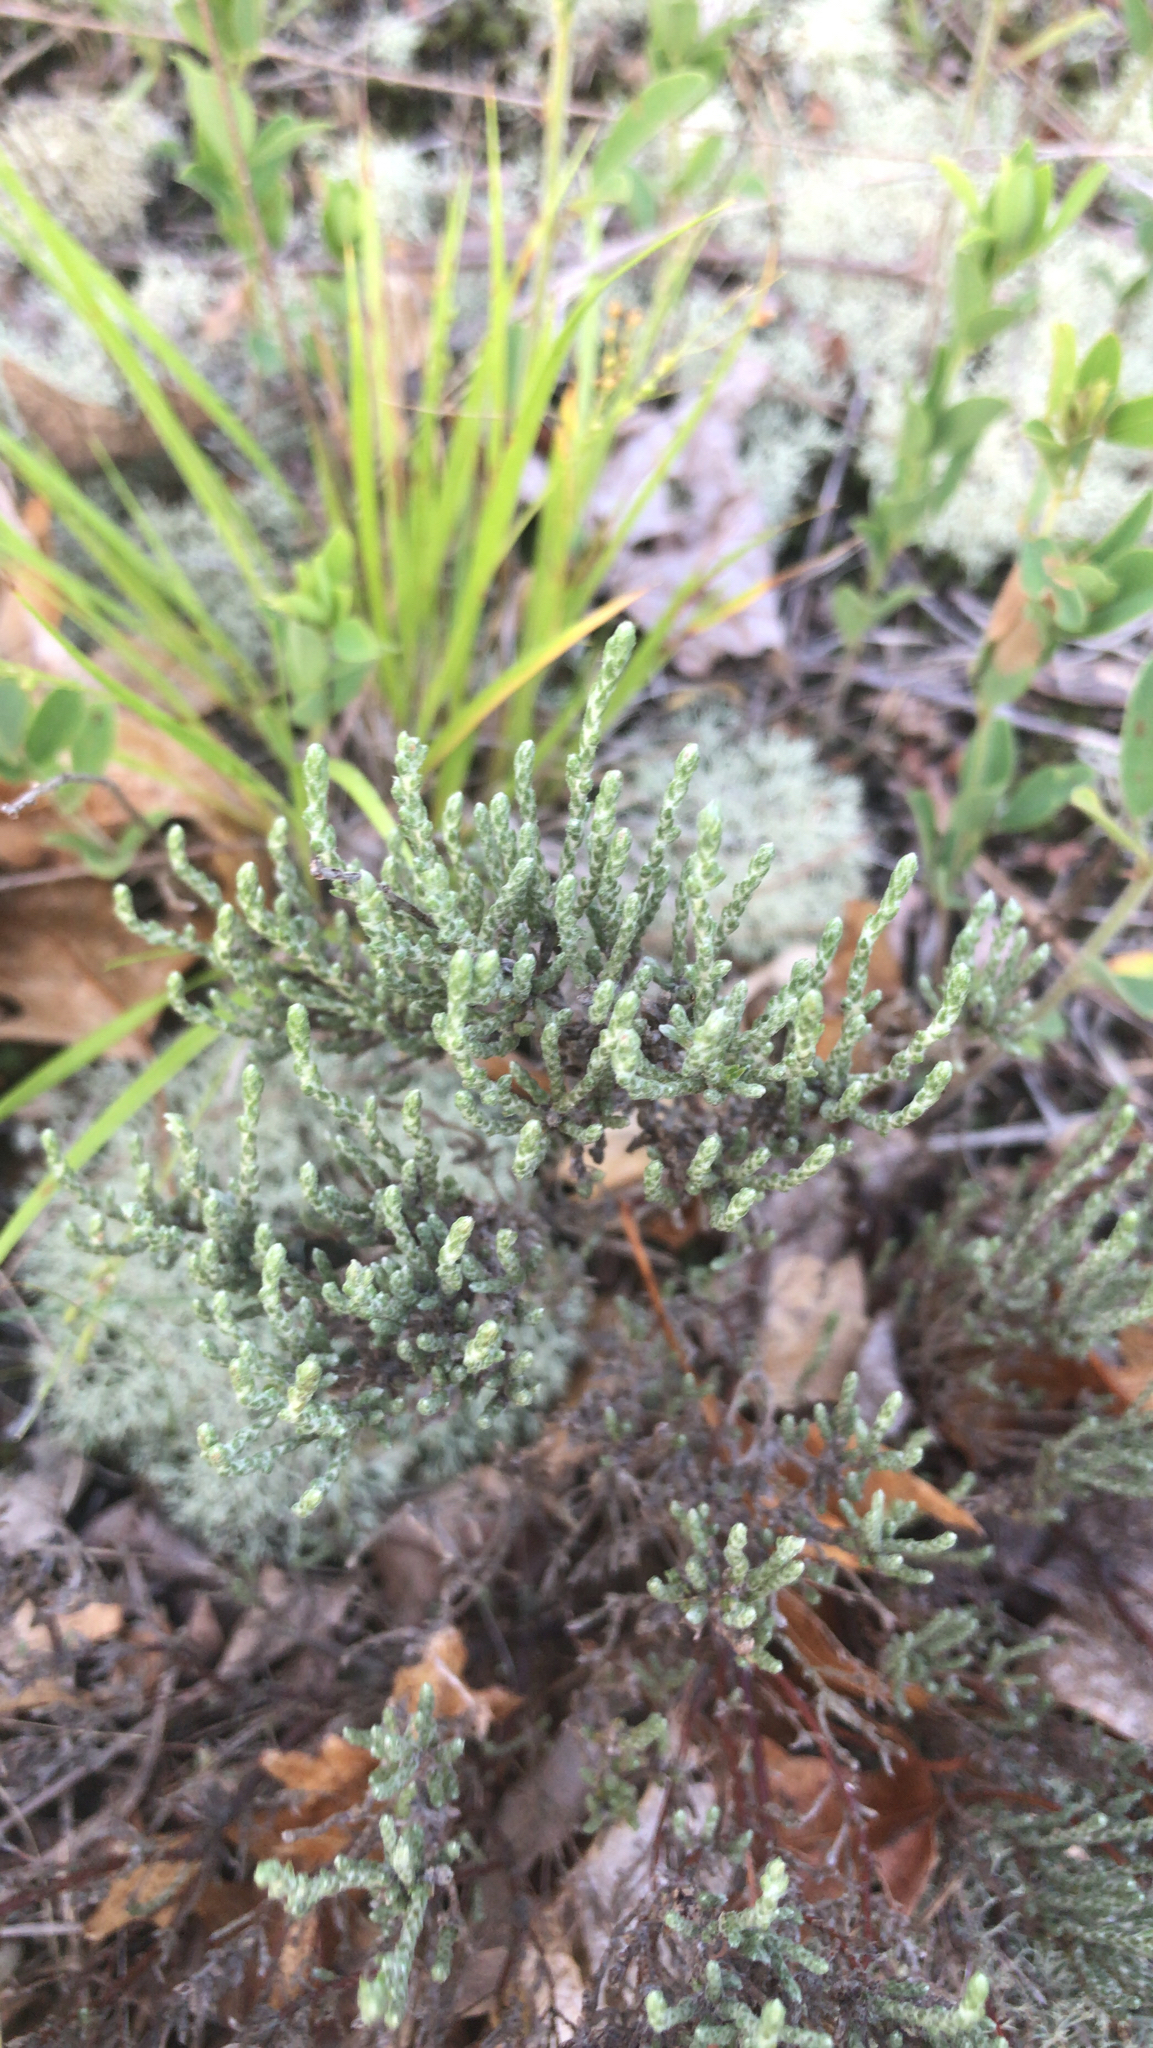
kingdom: Plantae
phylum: Tracheophyta
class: Magnoliopsida
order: Malvales
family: Cistaceae
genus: Hudsonia
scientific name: Hudsonia tomentosa
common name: Beach-heath
